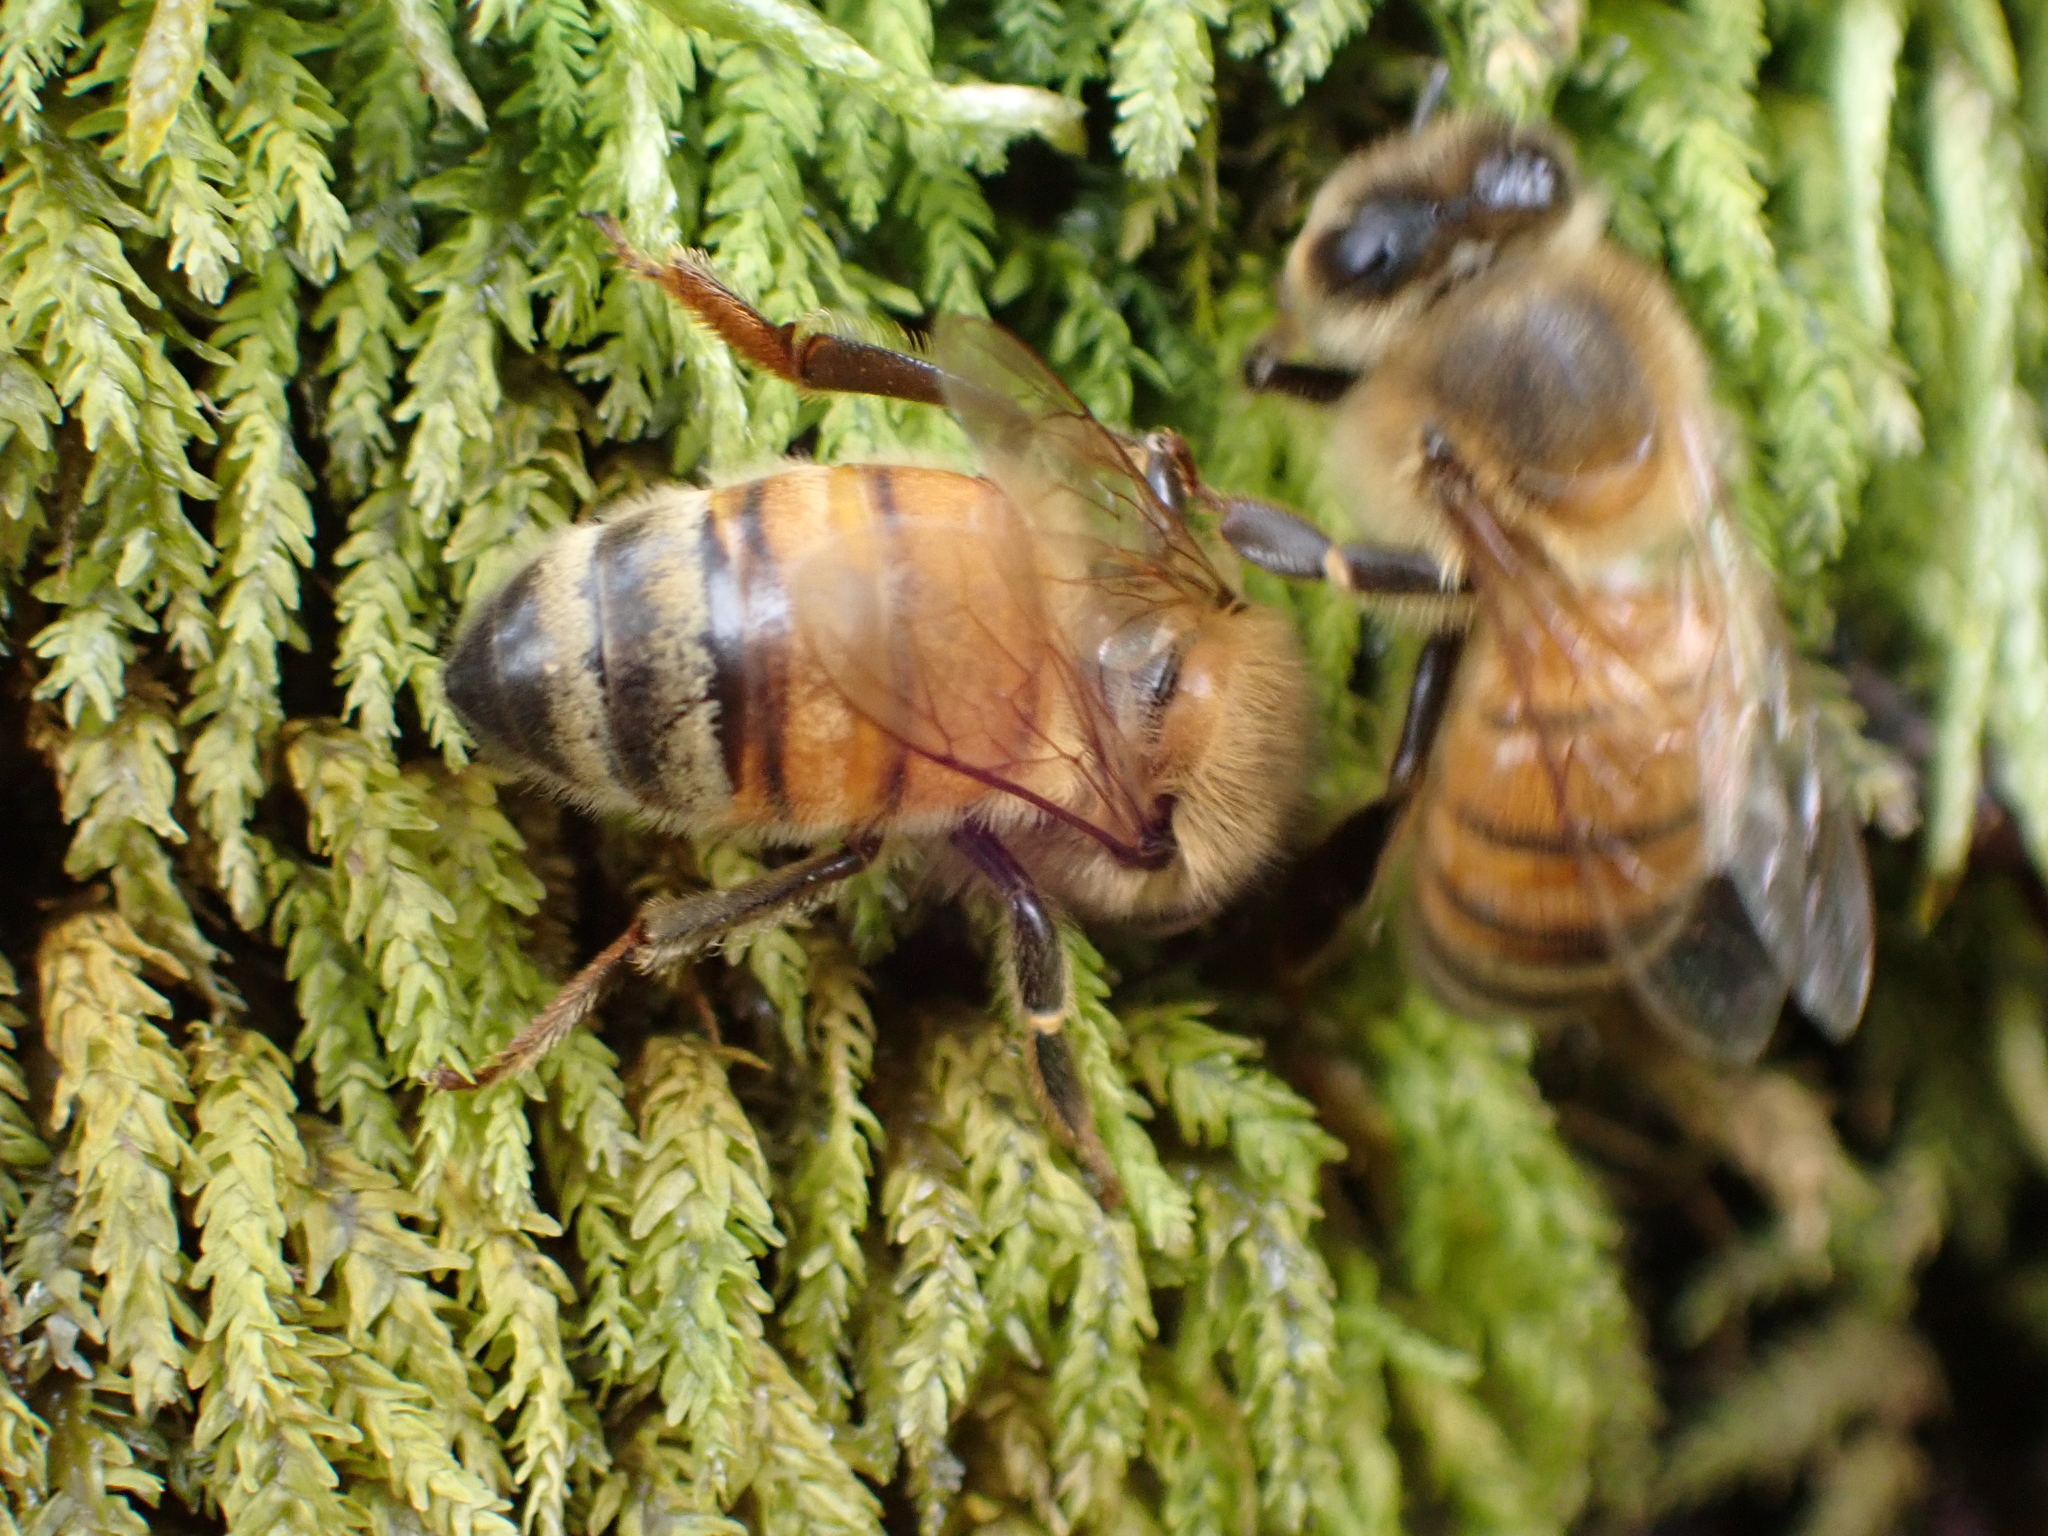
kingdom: Animalia
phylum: Arthropoda
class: Insecta
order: Hymenoptera
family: Apidae
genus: Apis
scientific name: Apis mellifera
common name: Honey bee
